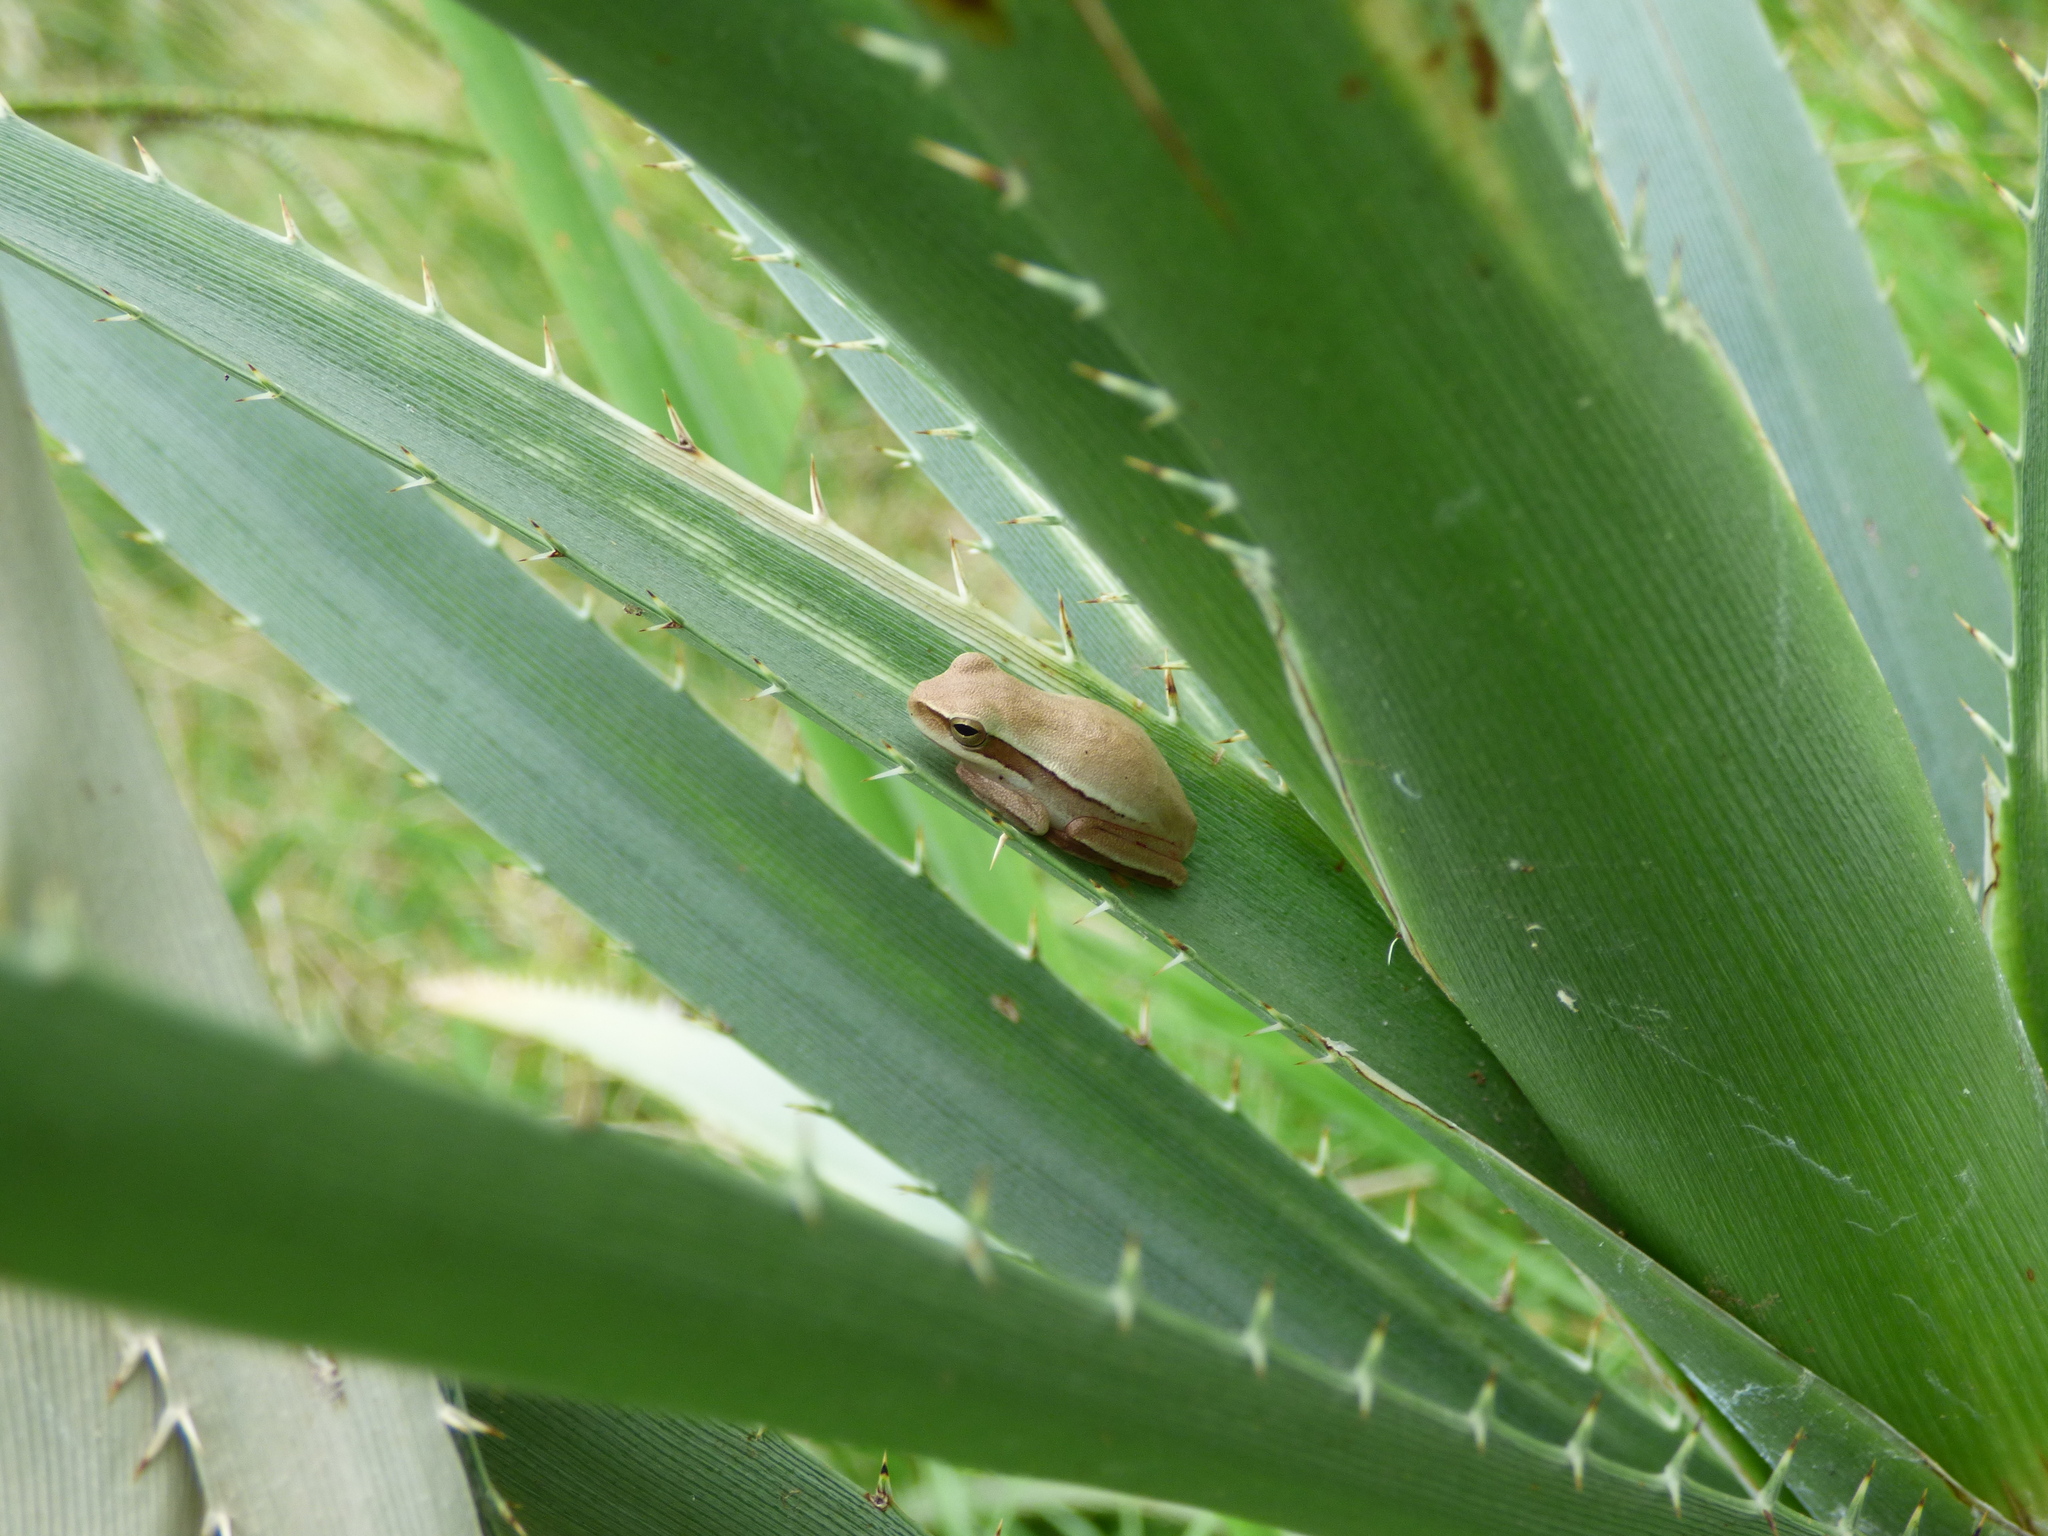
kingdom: Animalia
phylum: Chordata
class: Amphibia
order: Anura
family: Hylidae
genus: Boana
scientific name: Boana pulchella
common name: Montevideo treefrog
